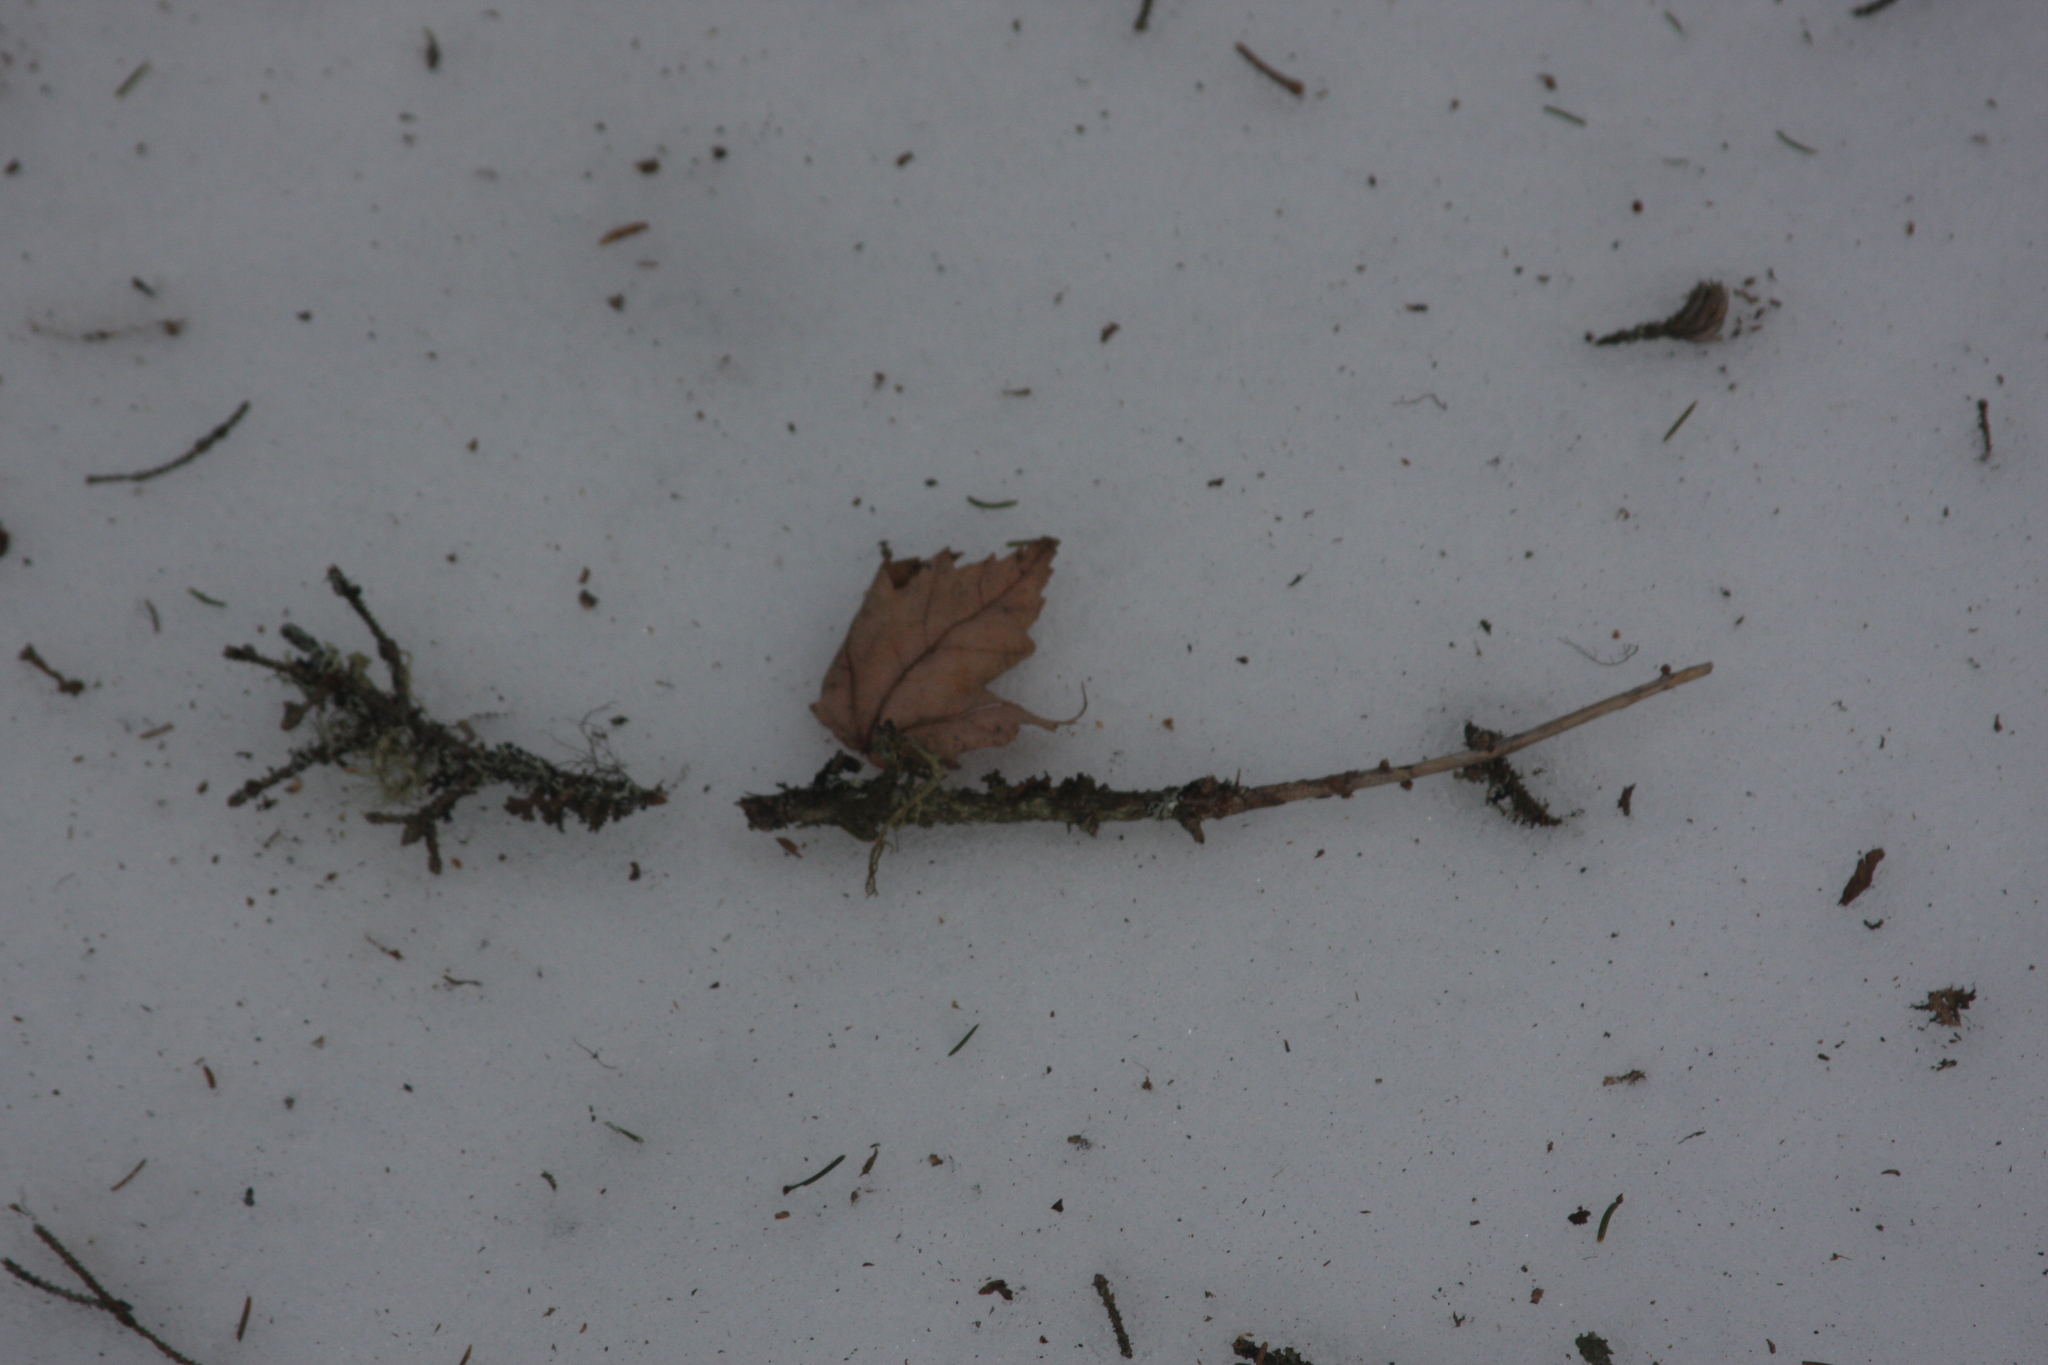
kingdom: Plantae
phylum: Tracheophyta
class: Magnoliopsida
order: Sapindales
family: Sapindaceae
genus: Acer
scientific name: Acer rubrum
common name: Red maple
